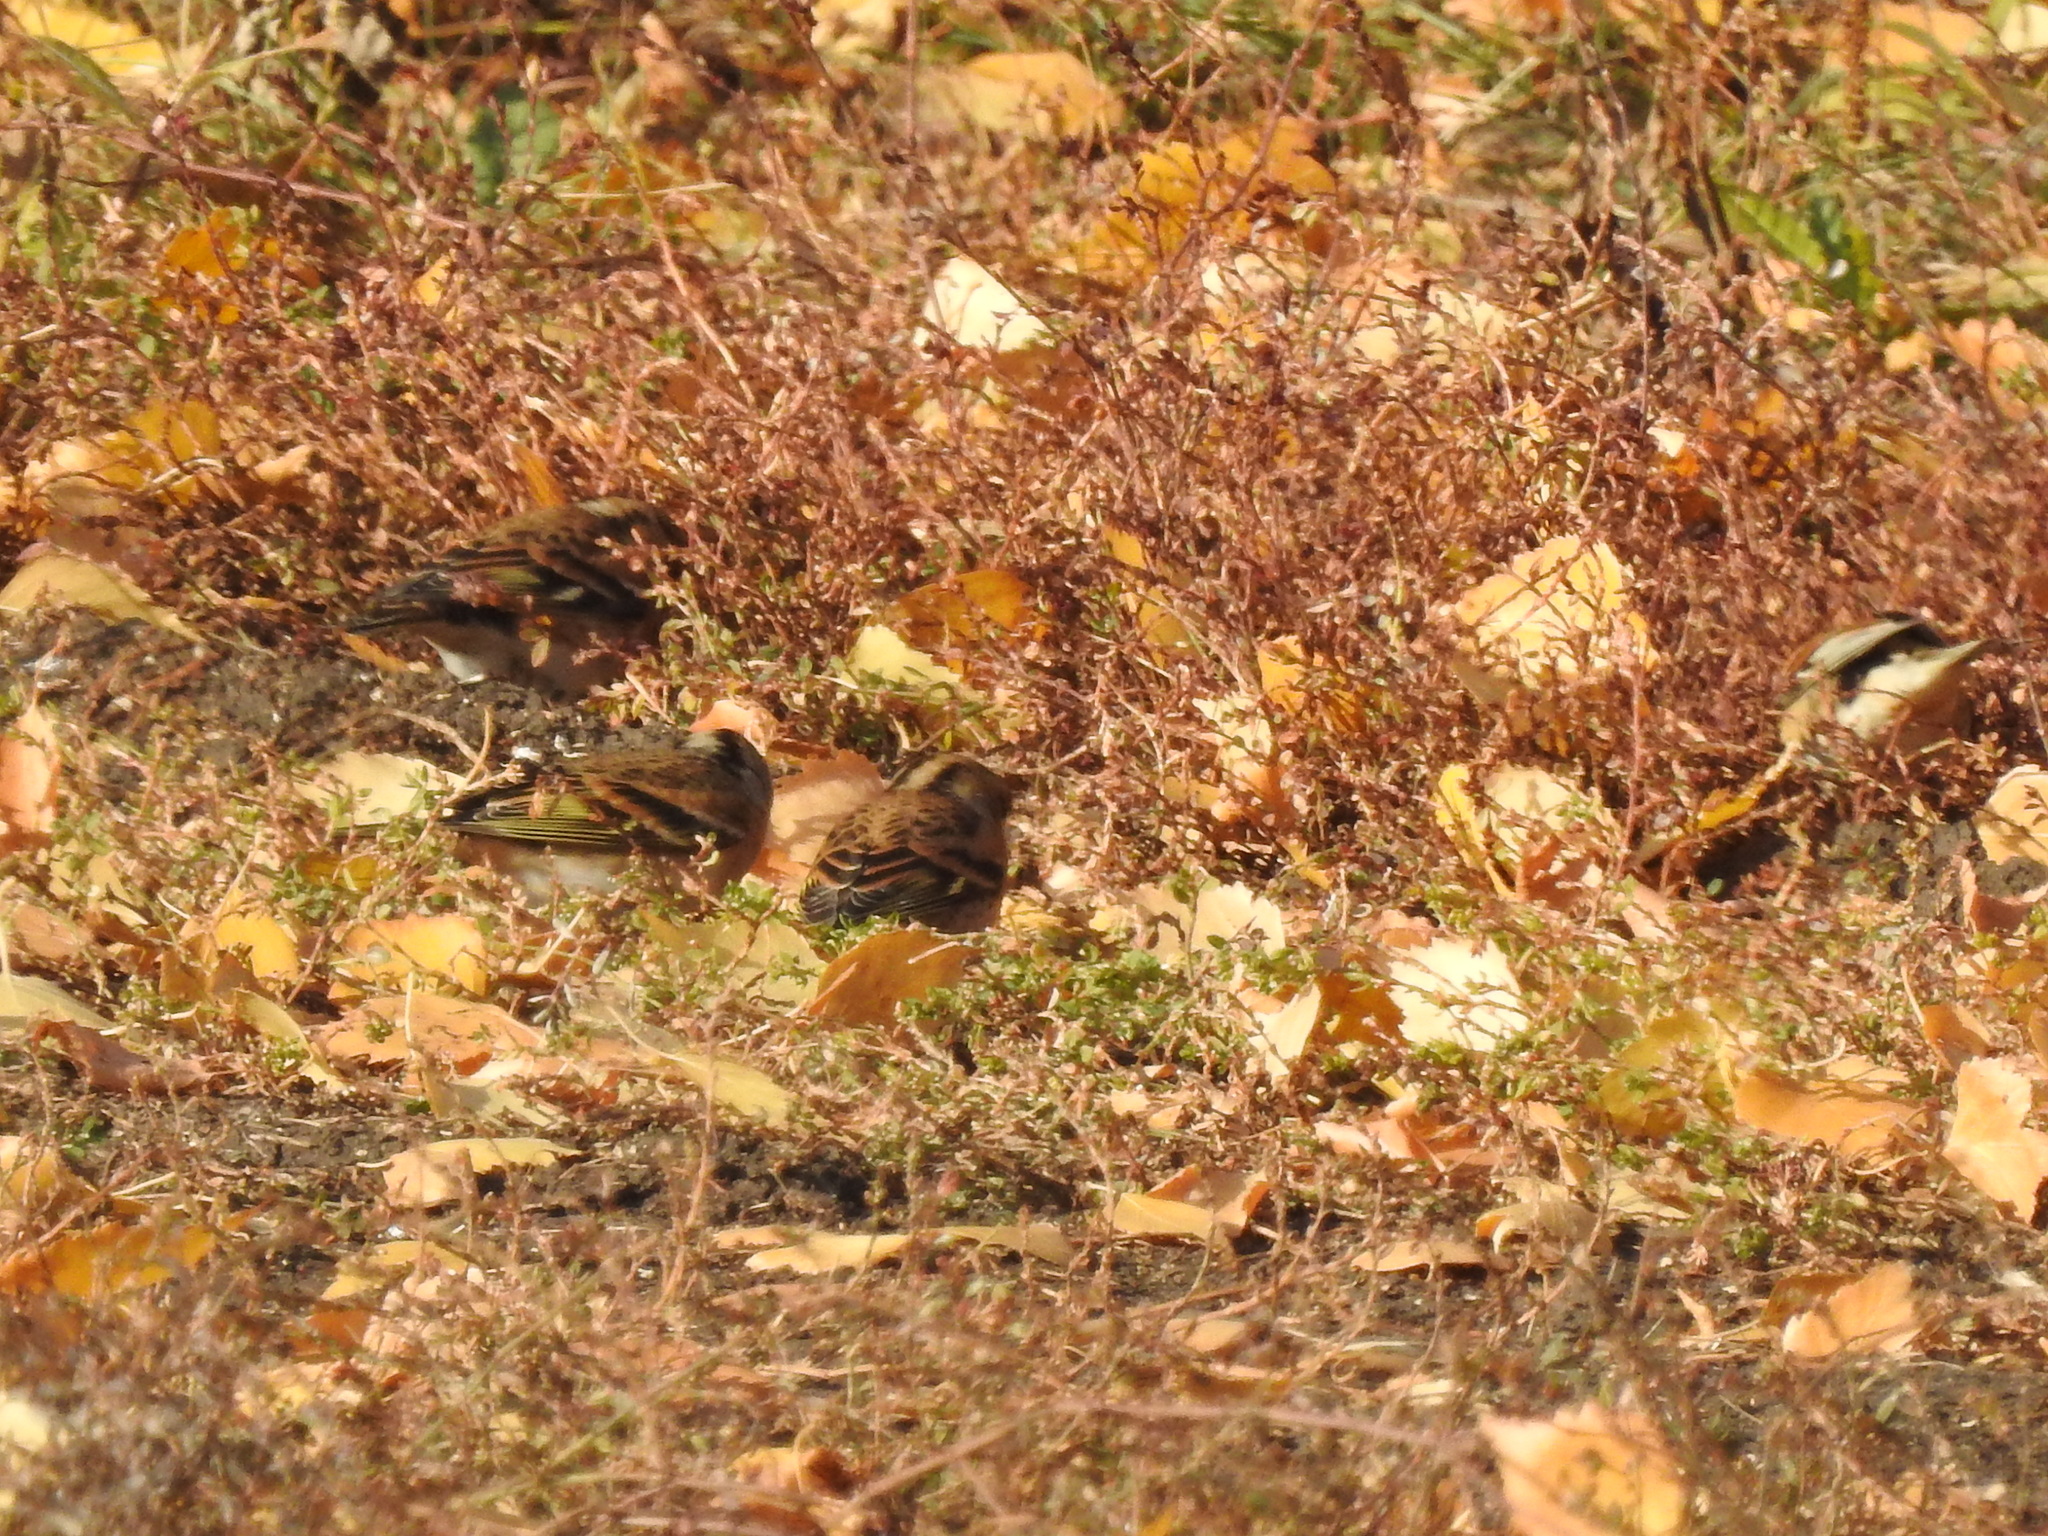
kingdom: Animalia
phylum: Chordata
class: Aves
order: Passeriformes
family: Fringillidae
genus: Fringilla
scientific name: Fringilla montifringilla
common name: Brambling
